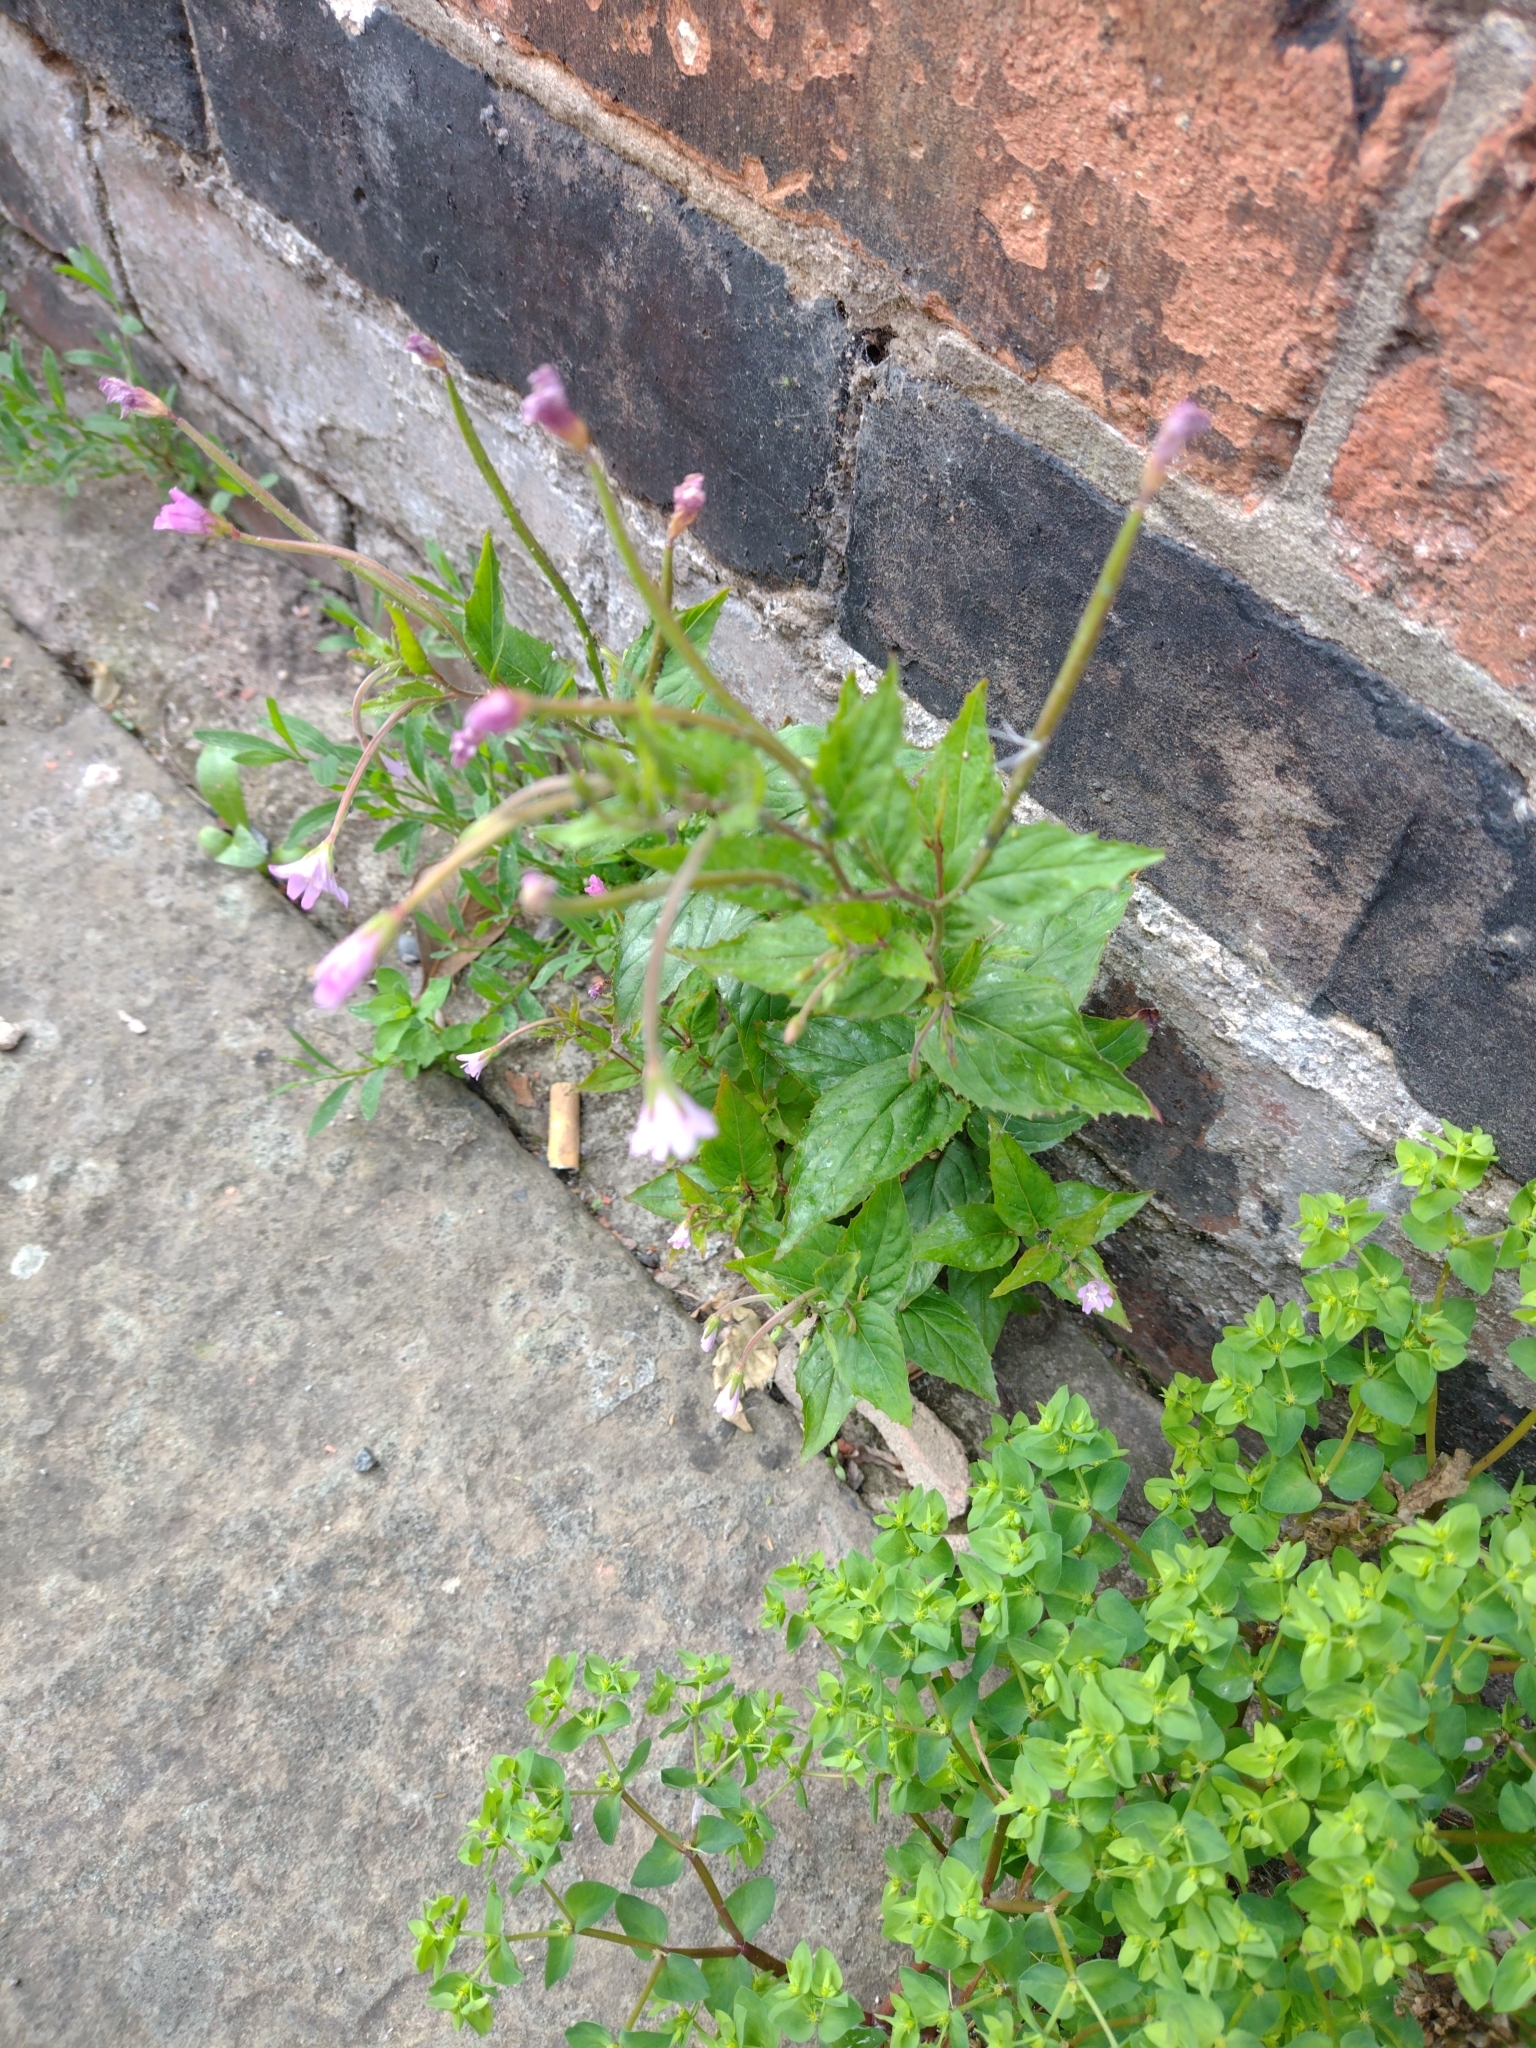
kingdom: Plantae
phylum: Tracheophyta
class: Magnoliopsida
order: Myrtales
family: Onagraceae
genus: Epilobium
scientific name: Epilobium montanum
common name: Broad-leaved willowherb
